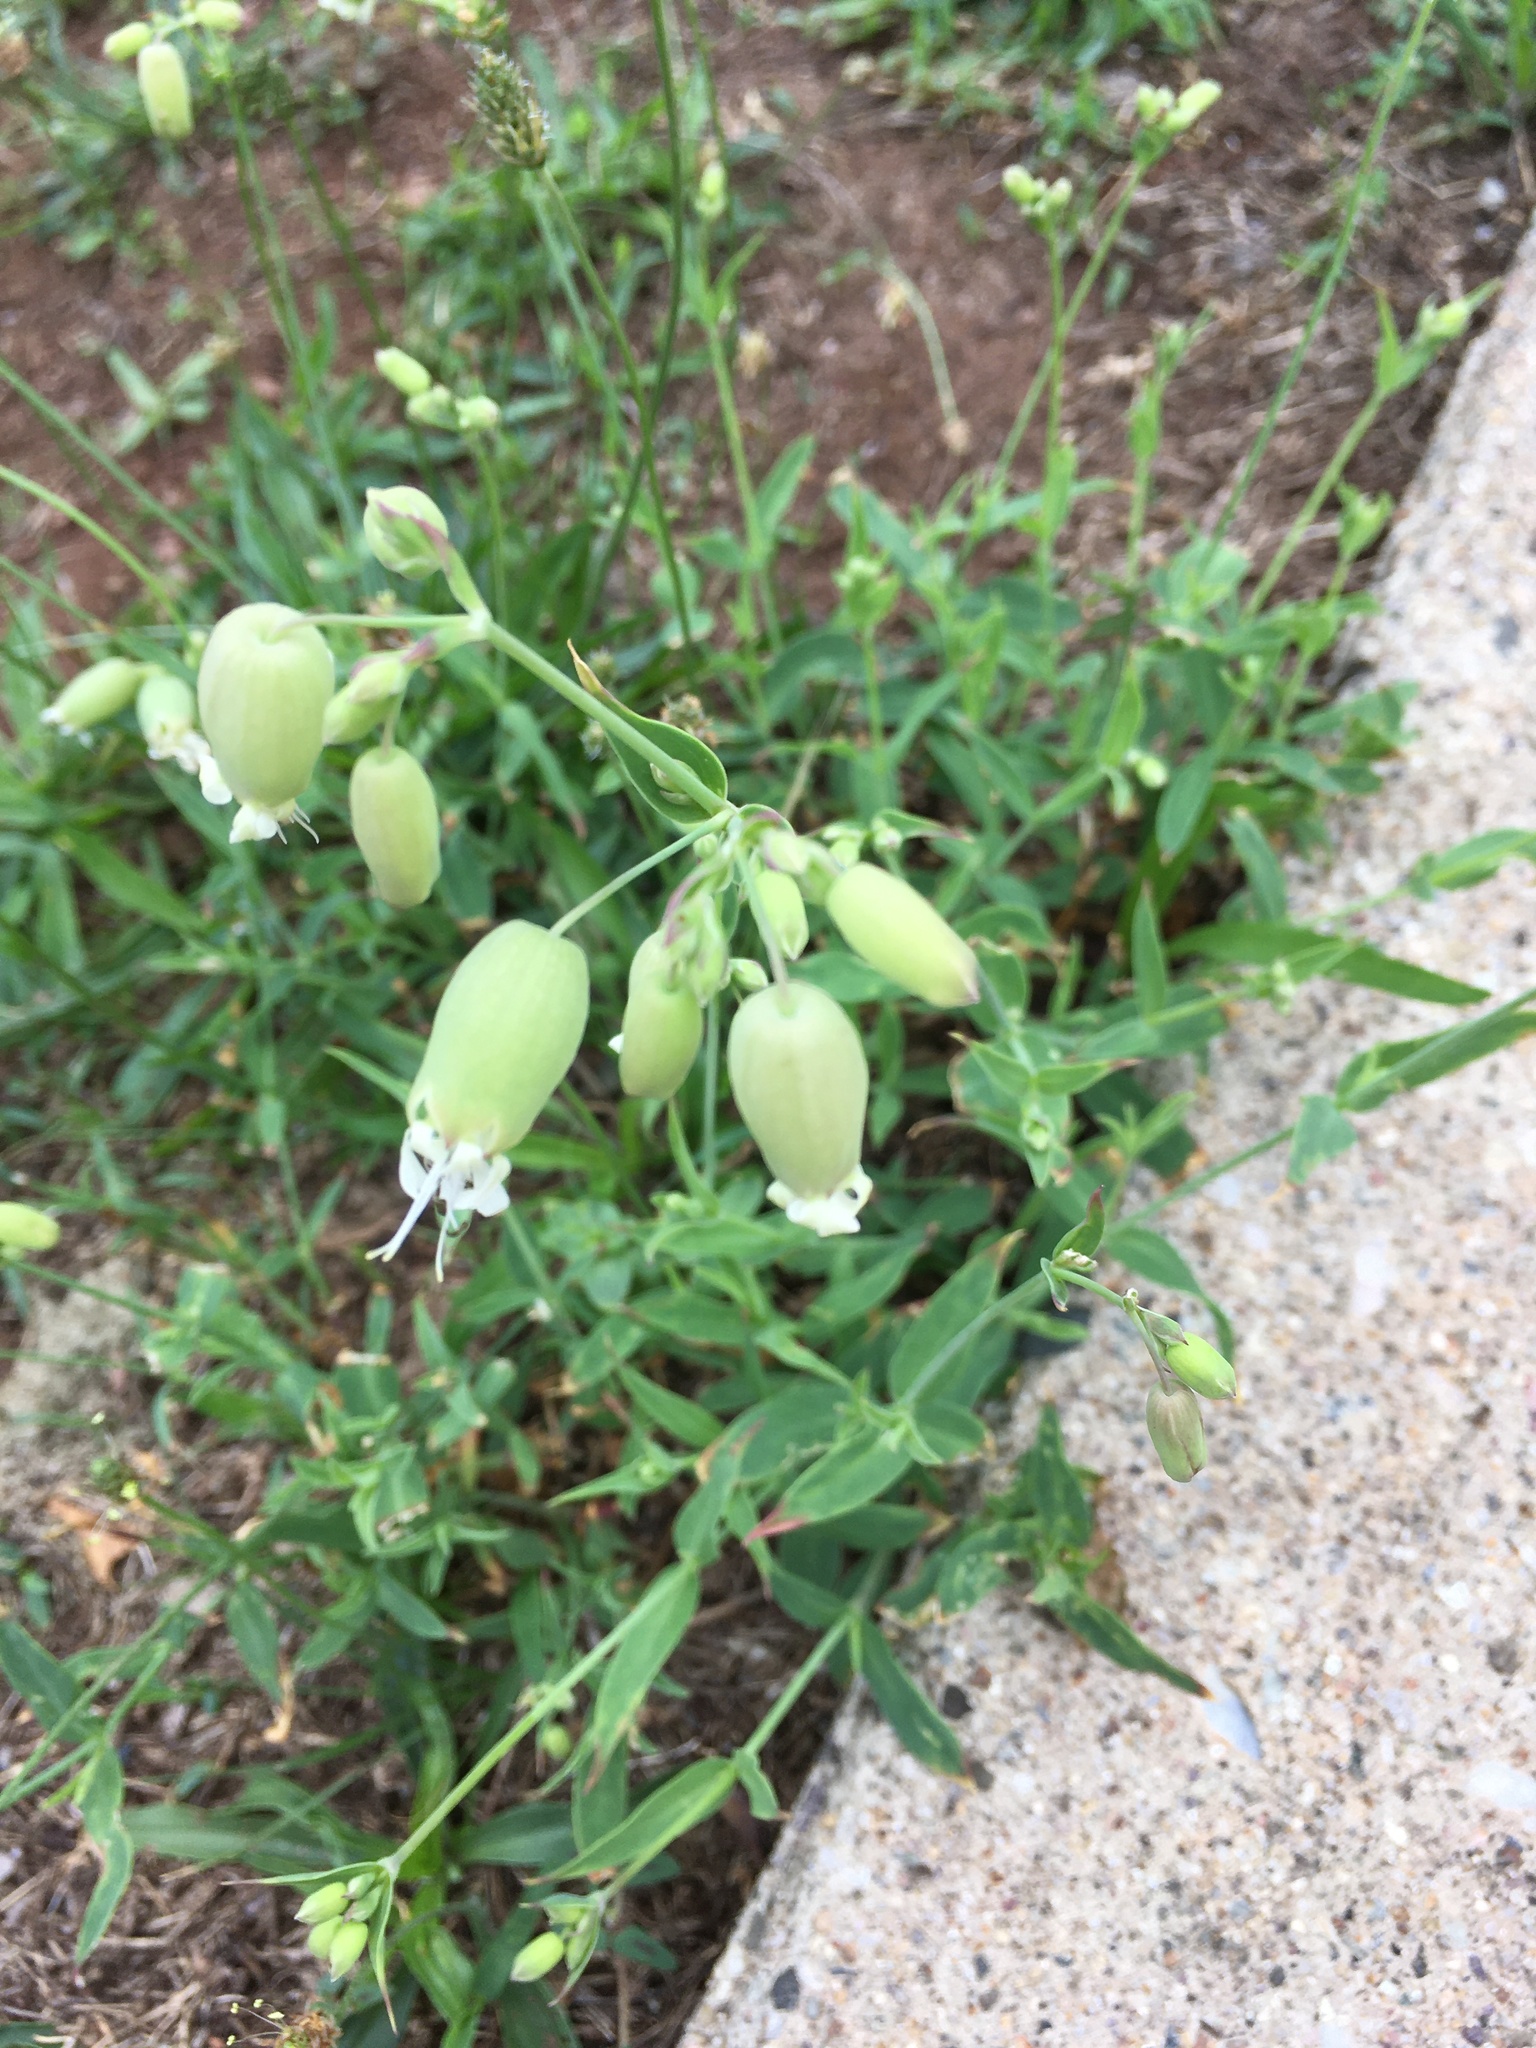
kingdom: Plantae
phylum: Tracheophyta
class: Magnoliopsida
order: Caryophyllales
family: Caryophyllaceae
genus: Silene
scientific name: Silene vulgaris
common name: Bladder campion
